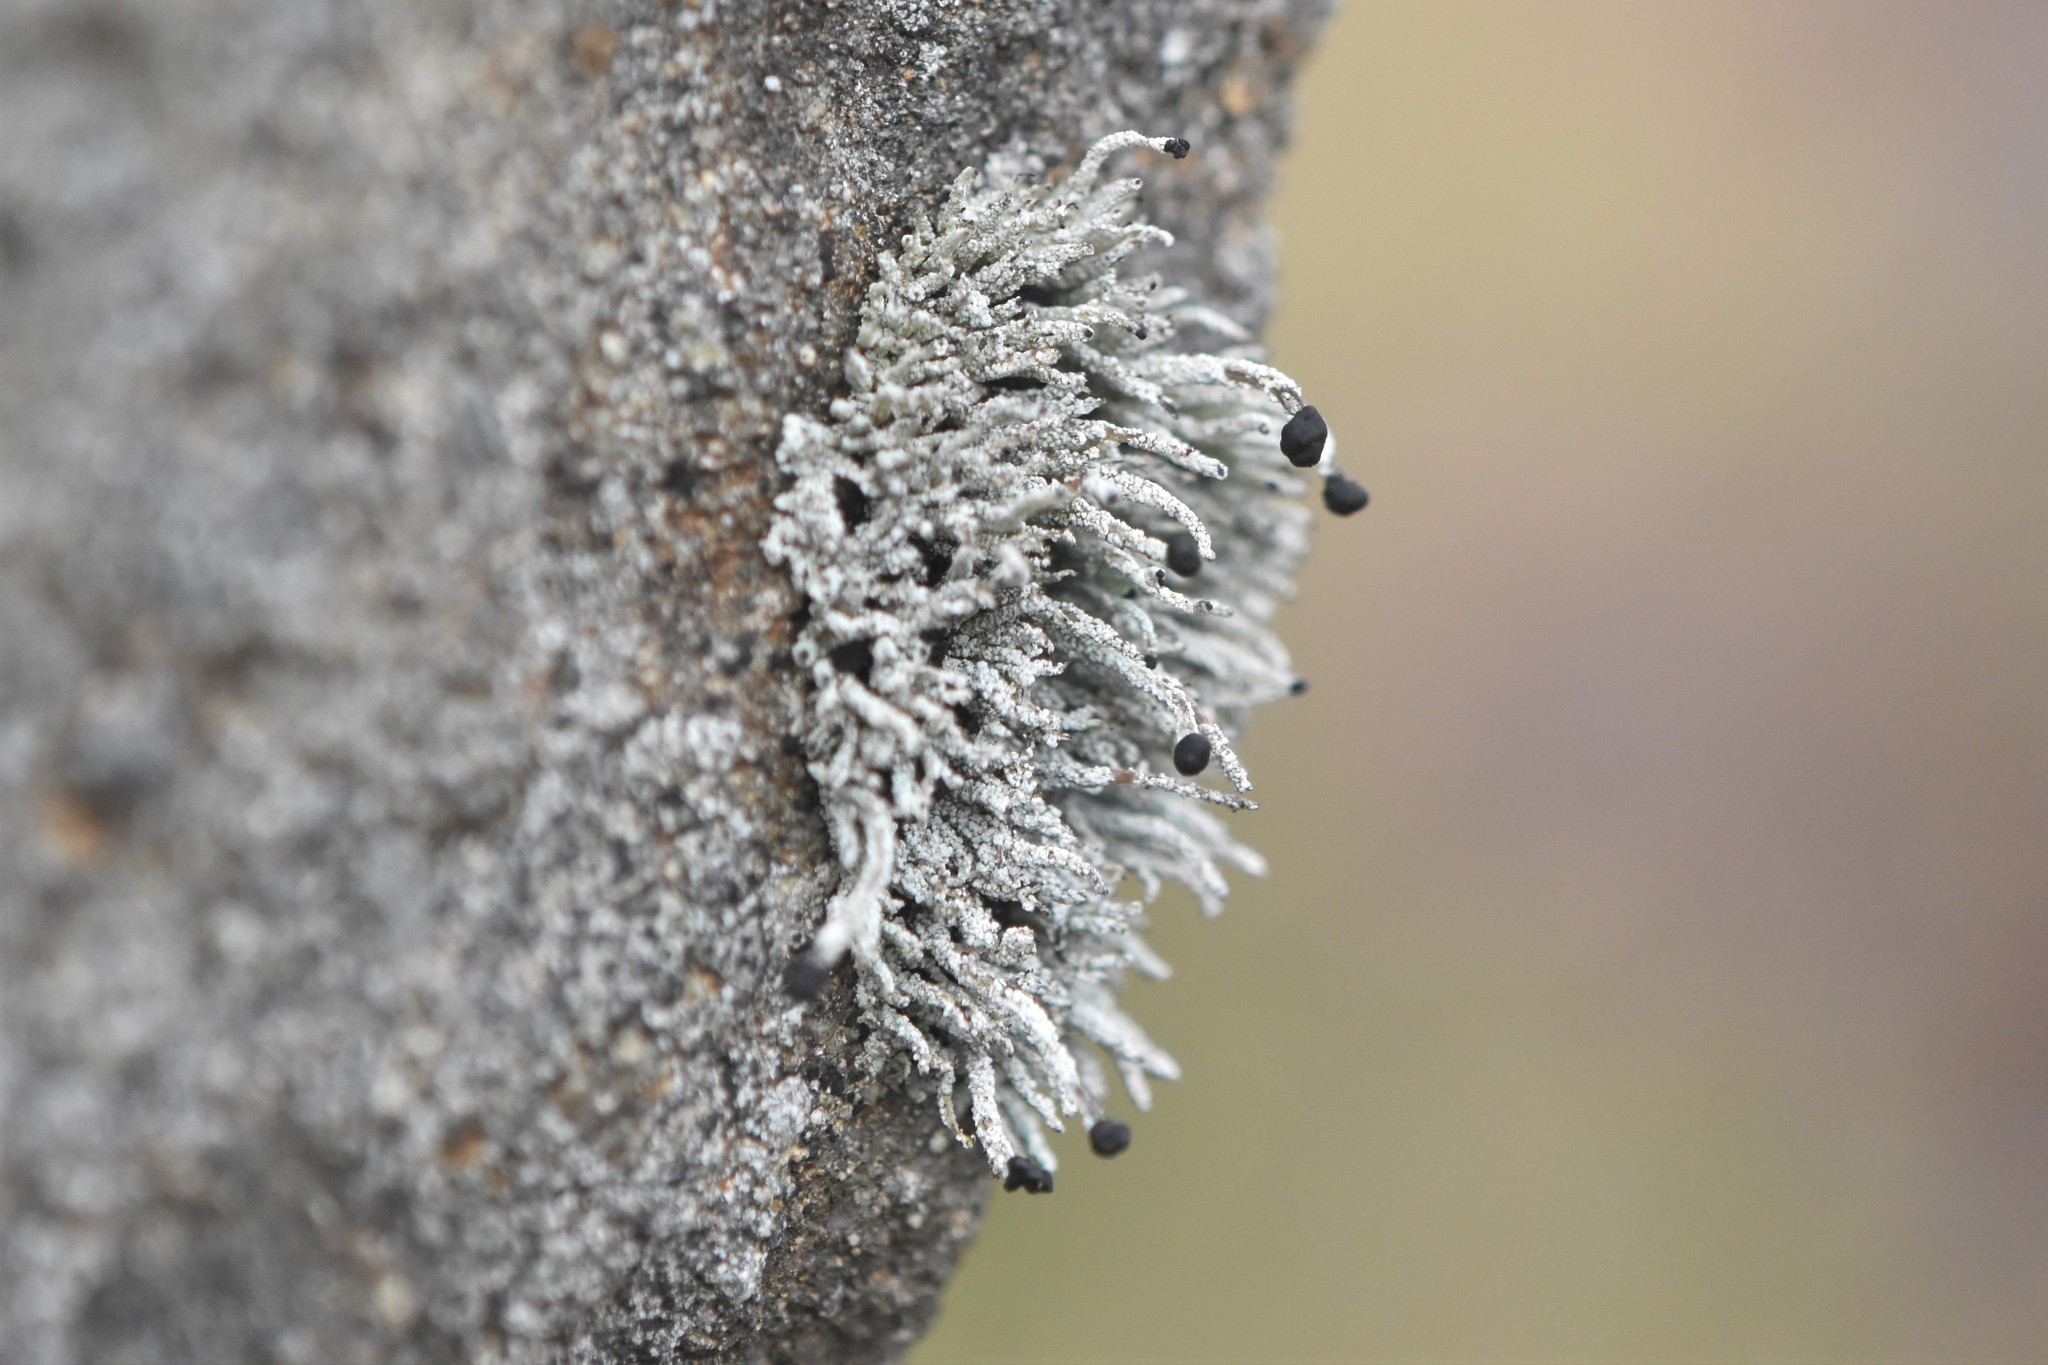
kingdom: Fungi
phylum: Ascomycota
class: Lecanoromycetes
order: Lecanorales
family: Cladoniaceae
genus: Pilophorus
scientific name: Pilophorus acicularis
